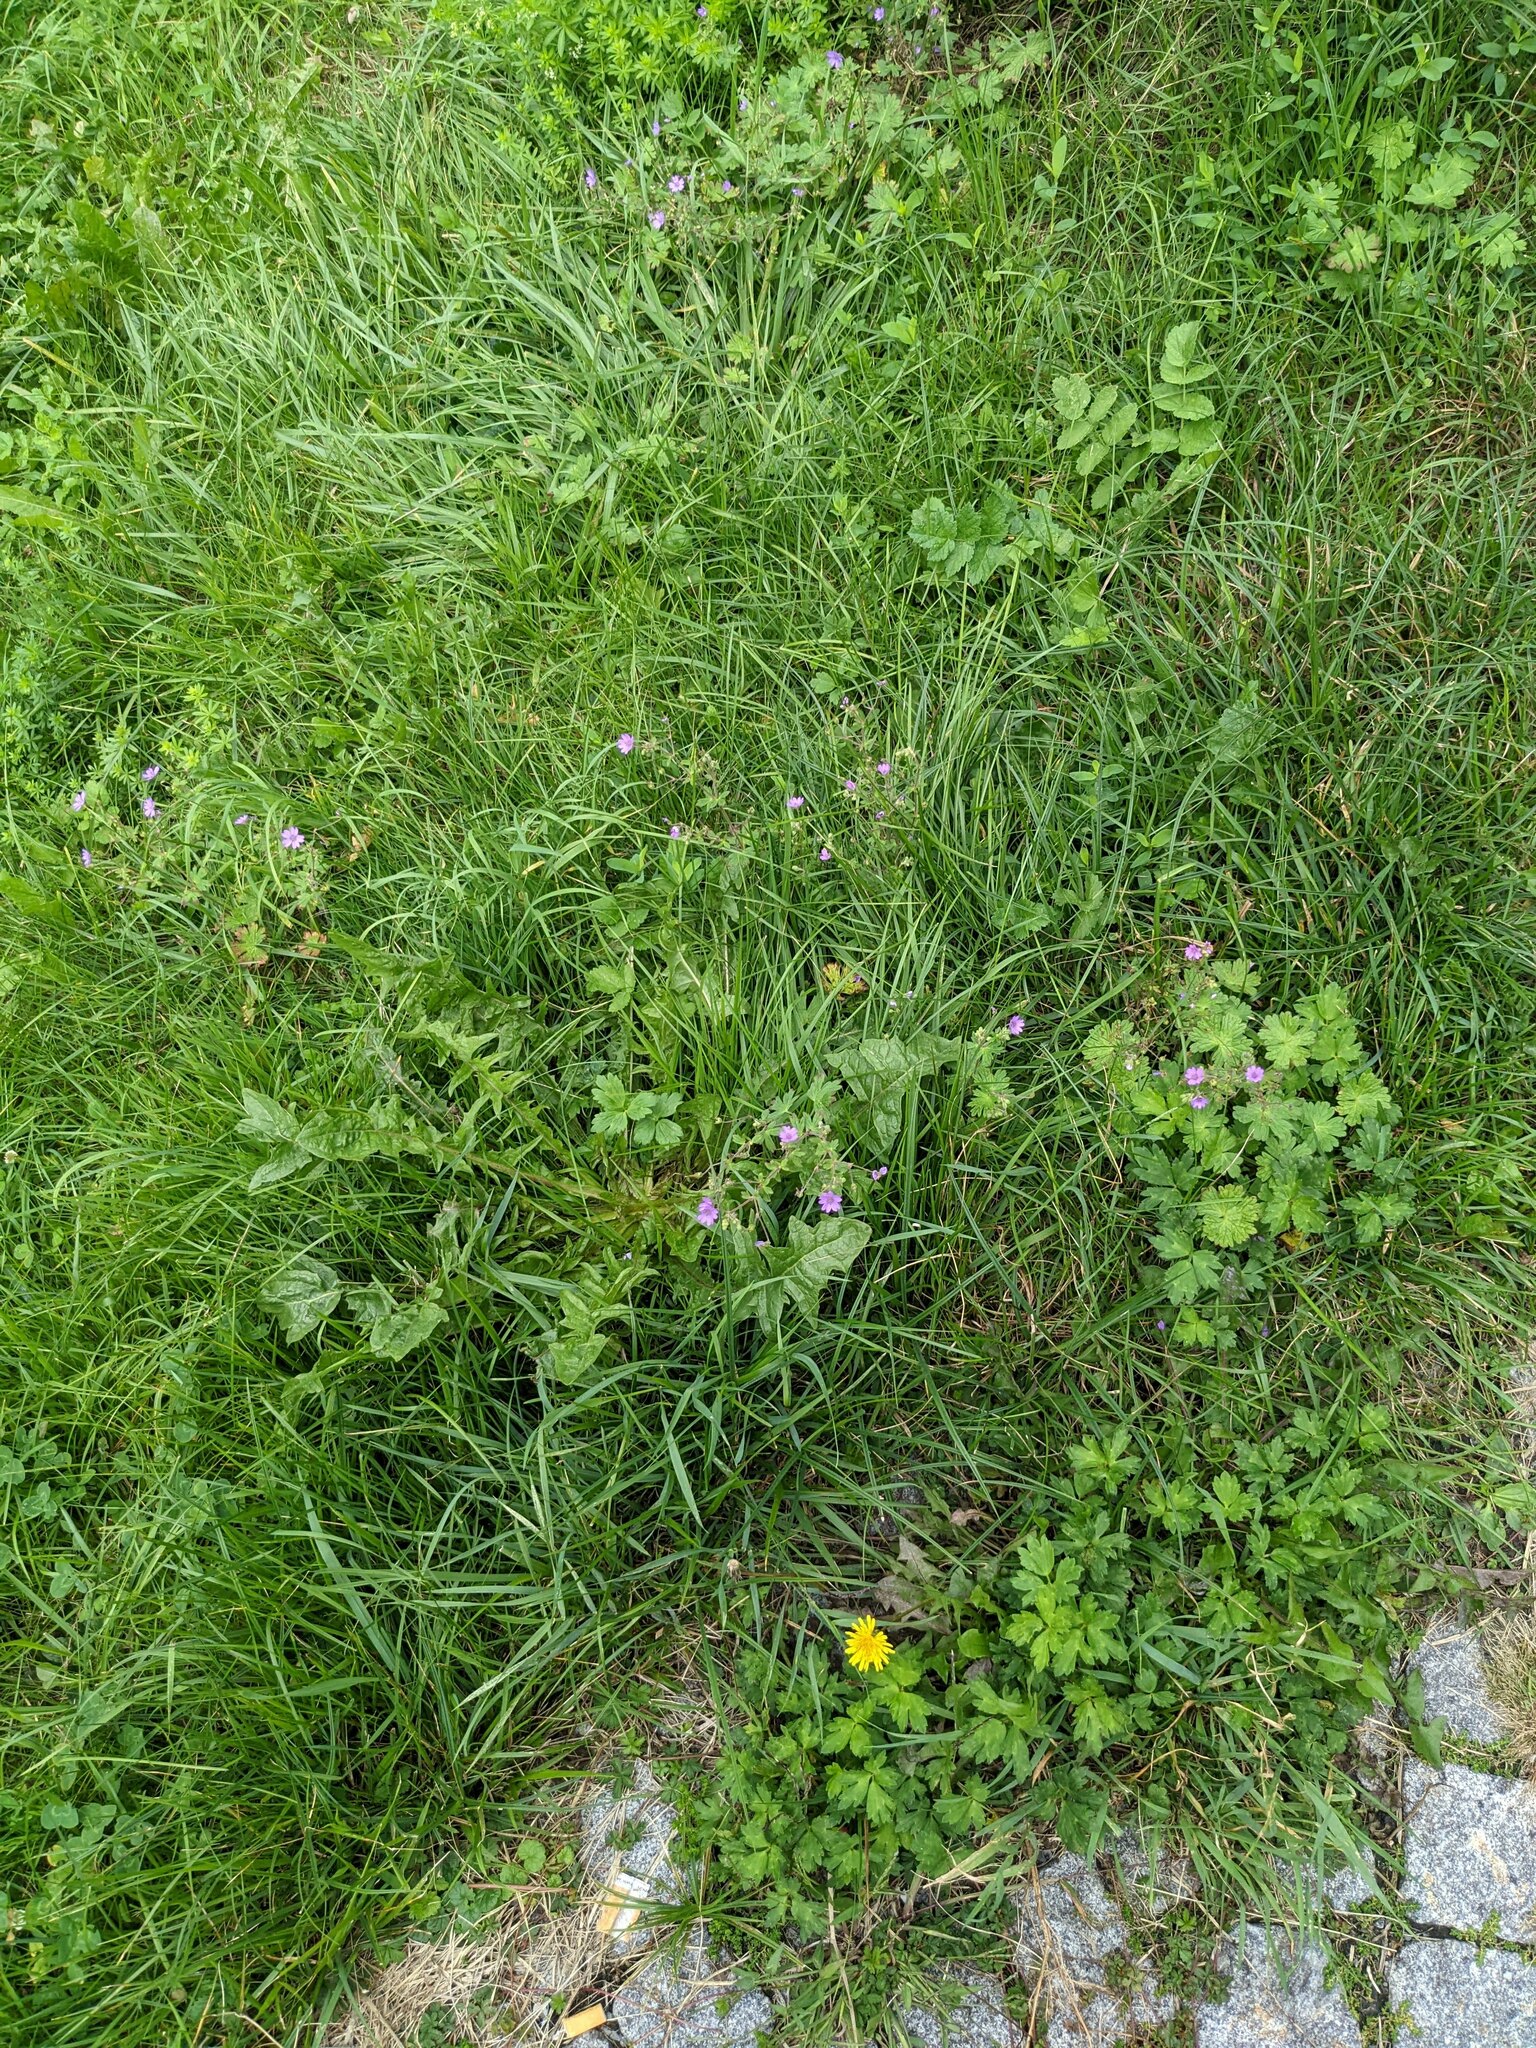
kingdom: Plantae
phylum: Tracheophyta
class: Magnoliopsida
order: Geraniales
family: Geraniaceae
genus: Geranium
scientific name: Geranium pyrenaicum
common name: Hedgerow crane's-bill
